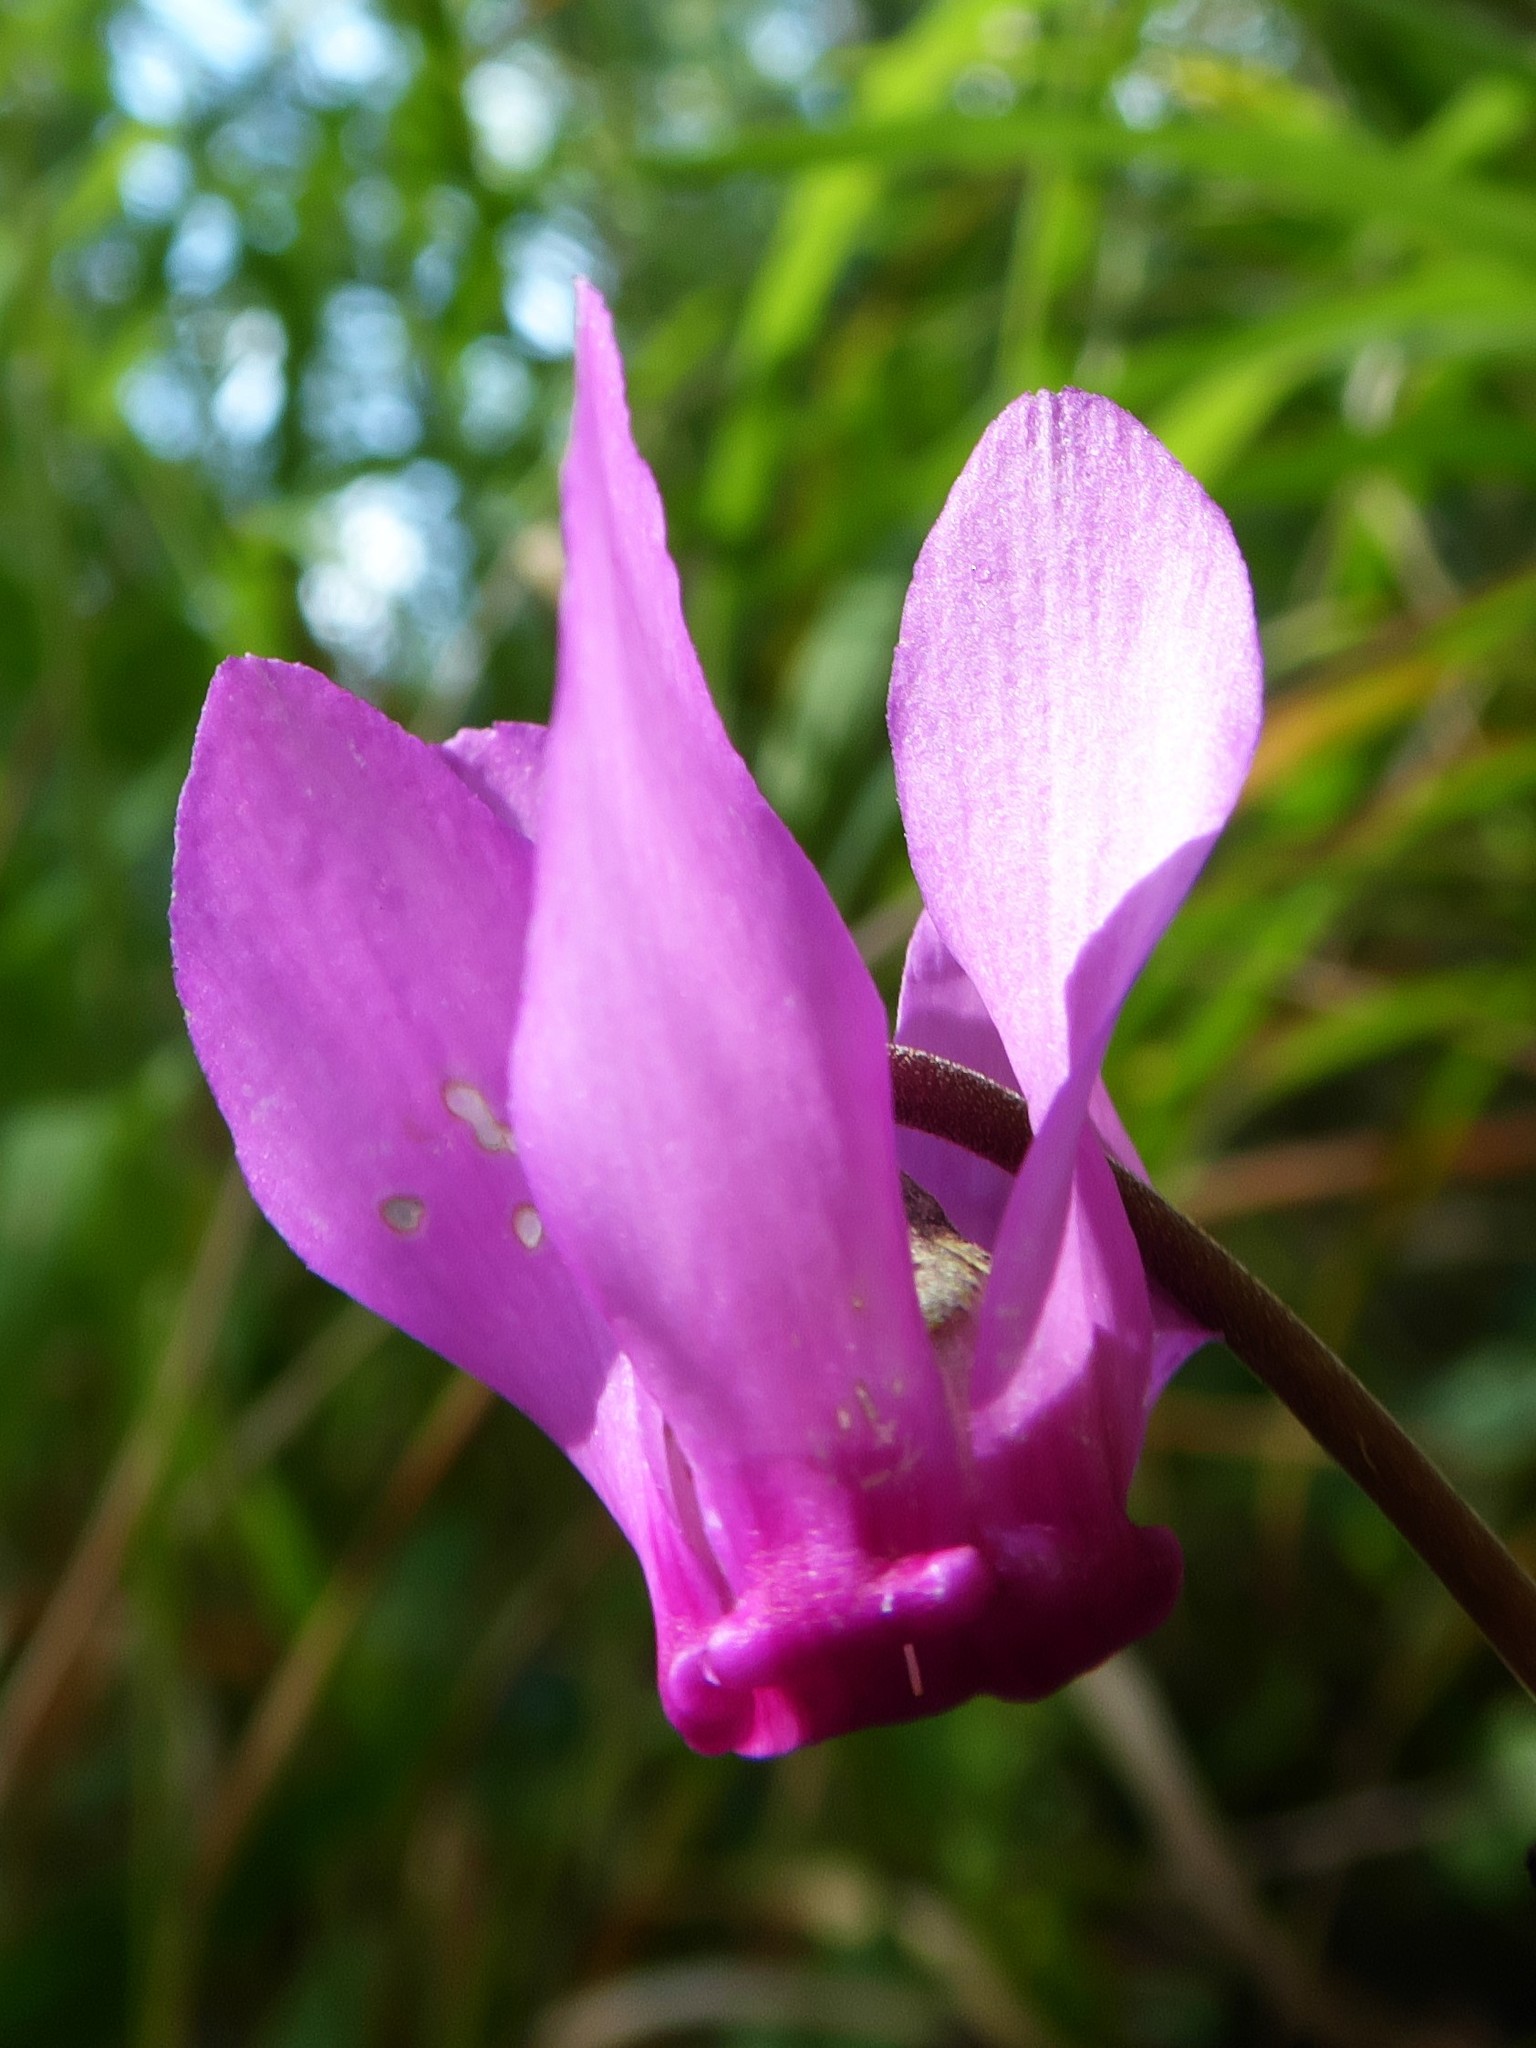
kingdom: Plantae
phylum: Tracheophyta
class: Magnoliopsida
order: Ericales
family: Primulaceae
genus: Cyclamen
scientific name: Cyclamen purpurascens
